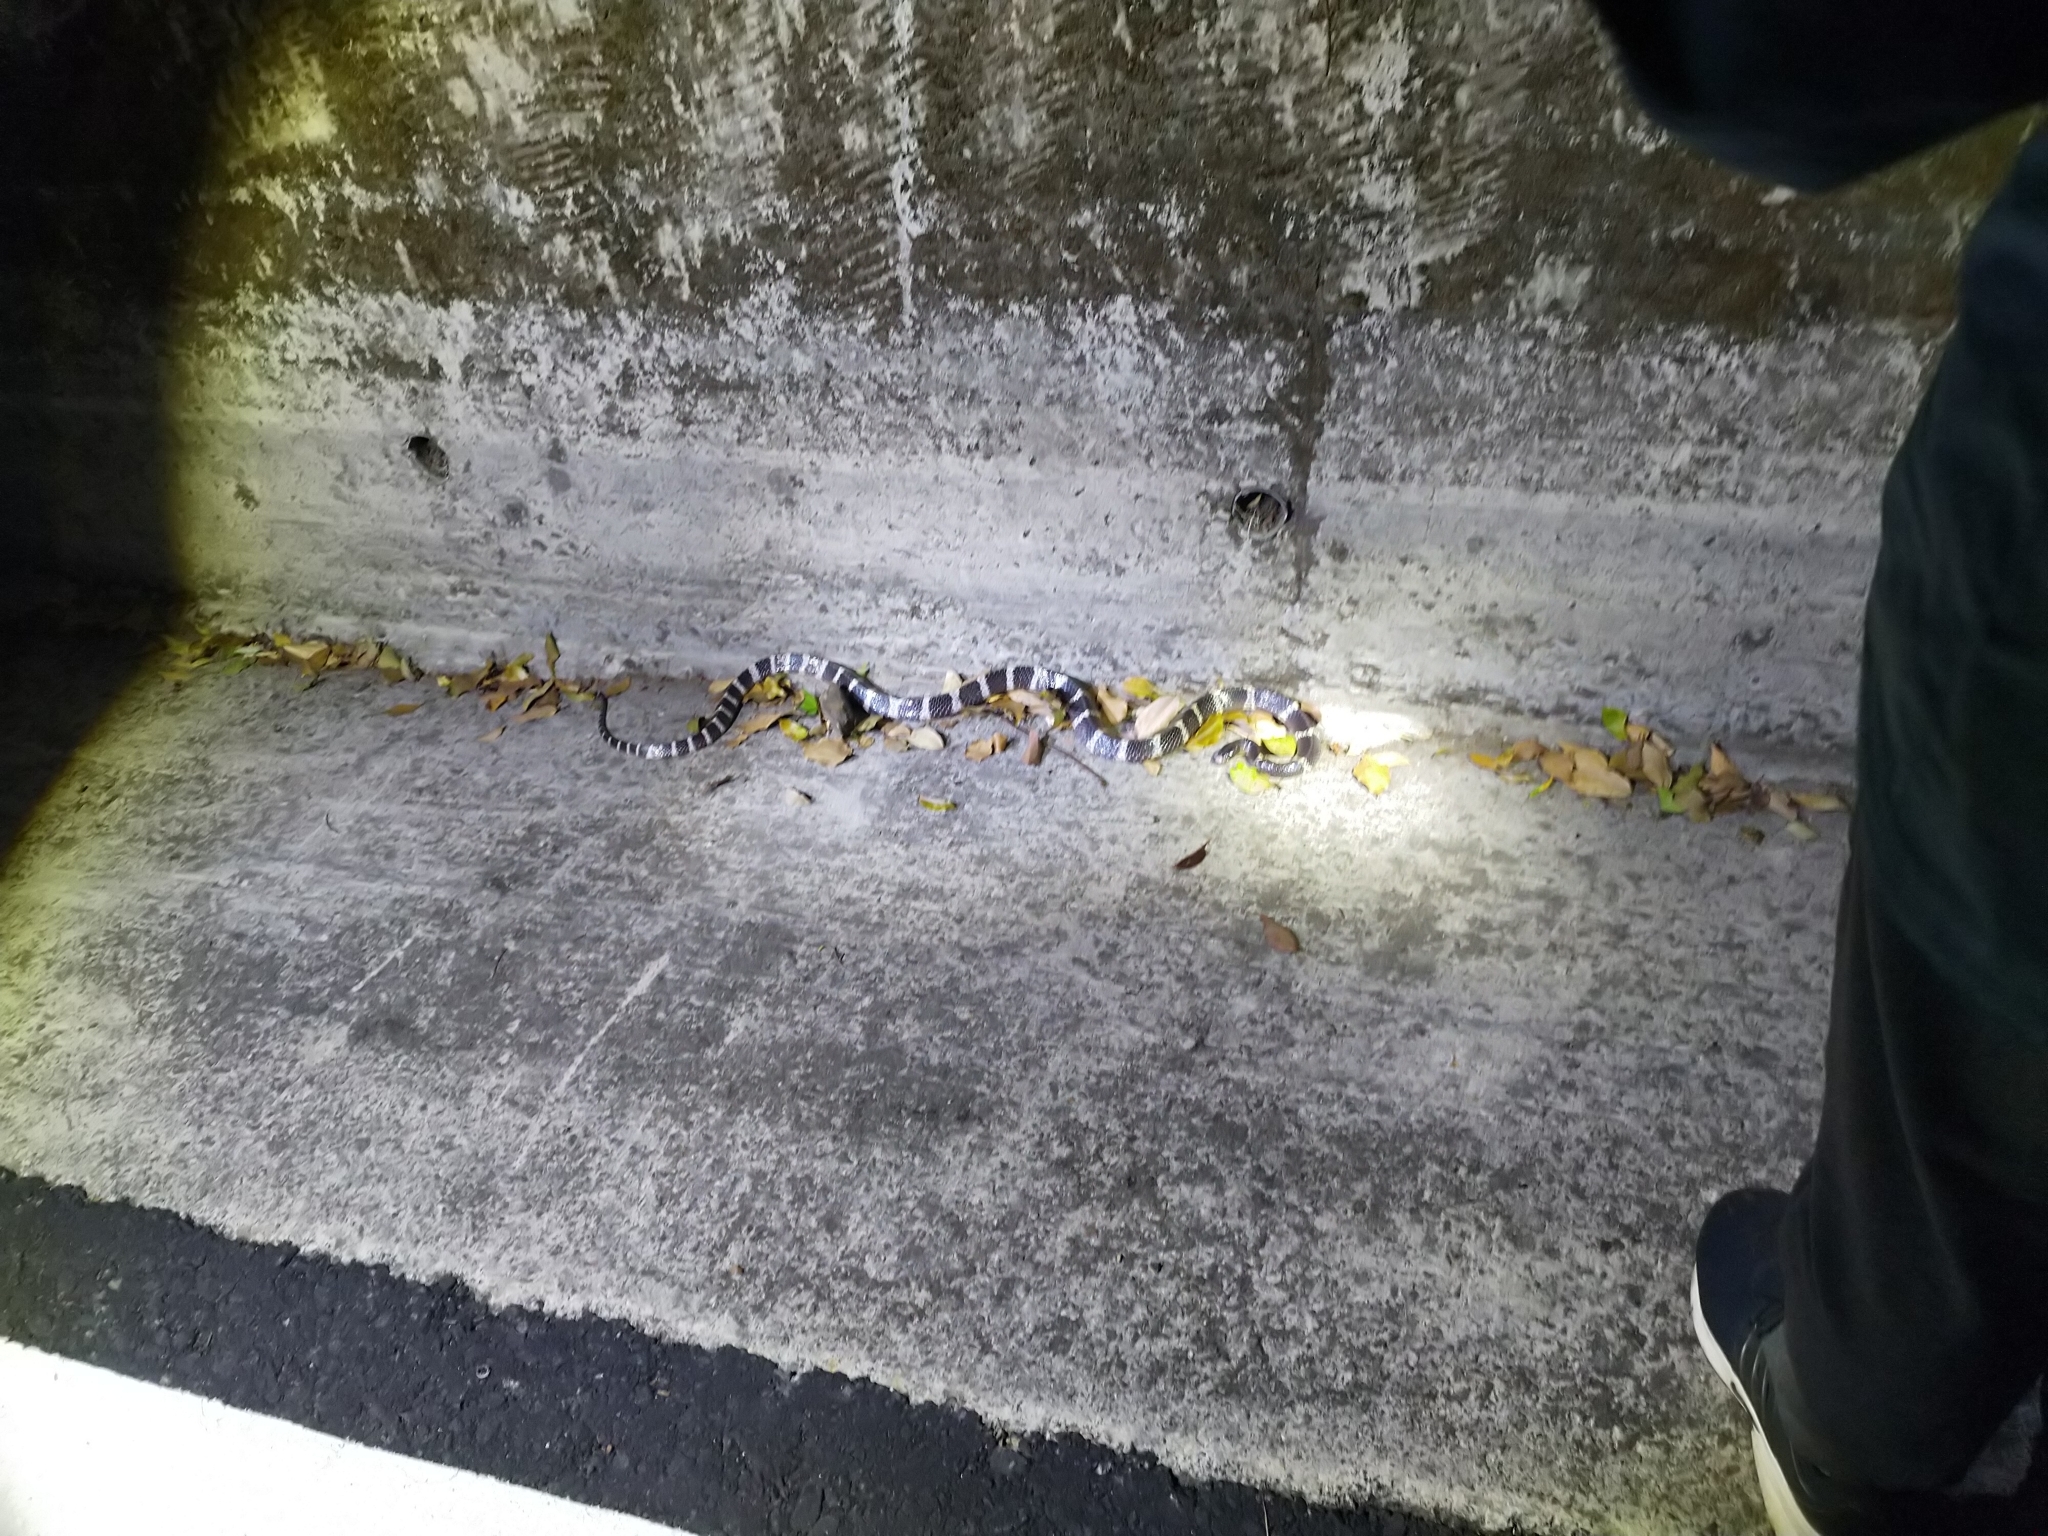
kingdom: Animalia
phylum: Chordata
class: Squamata
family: Elapidae
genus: Bungarus
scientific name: Bungarus multicinctus
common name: Many-banded krait
